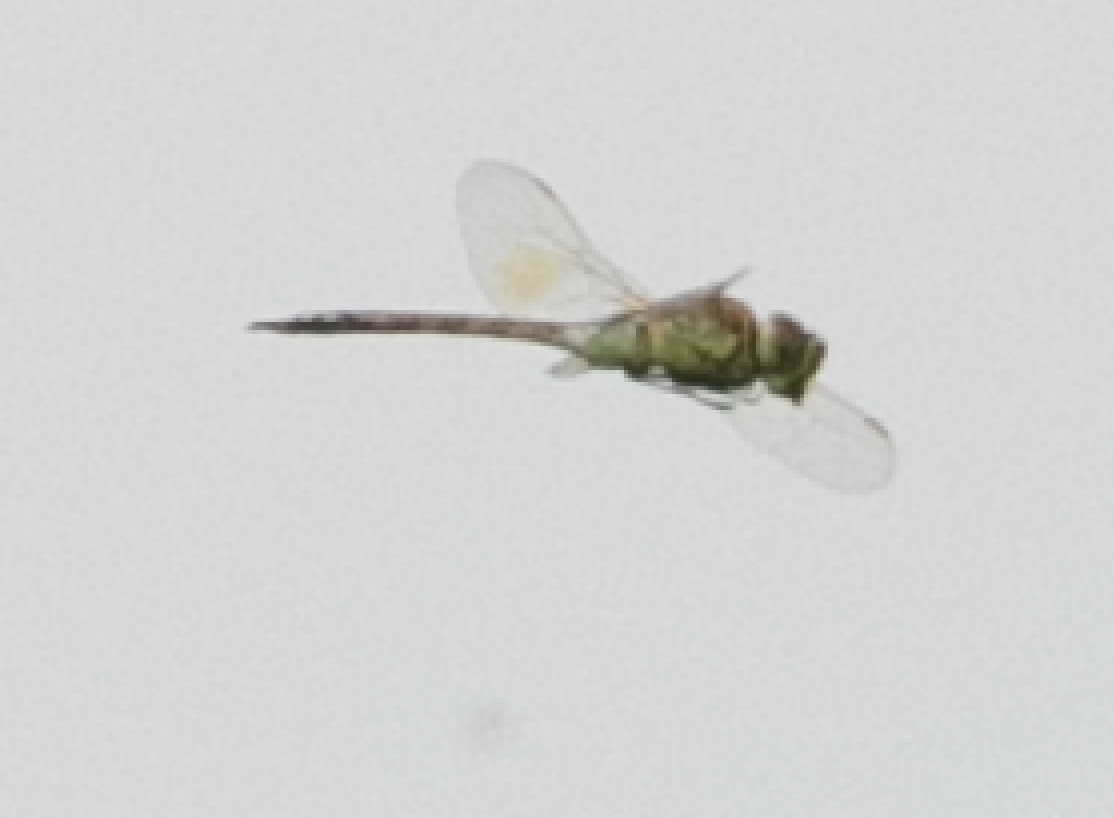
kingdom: Animalia
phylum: Arthropoda
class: Insecta
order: Odonata
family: Aeshnidae
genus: Anax
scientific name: Anax ephippiger
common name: Vagrant emperor
